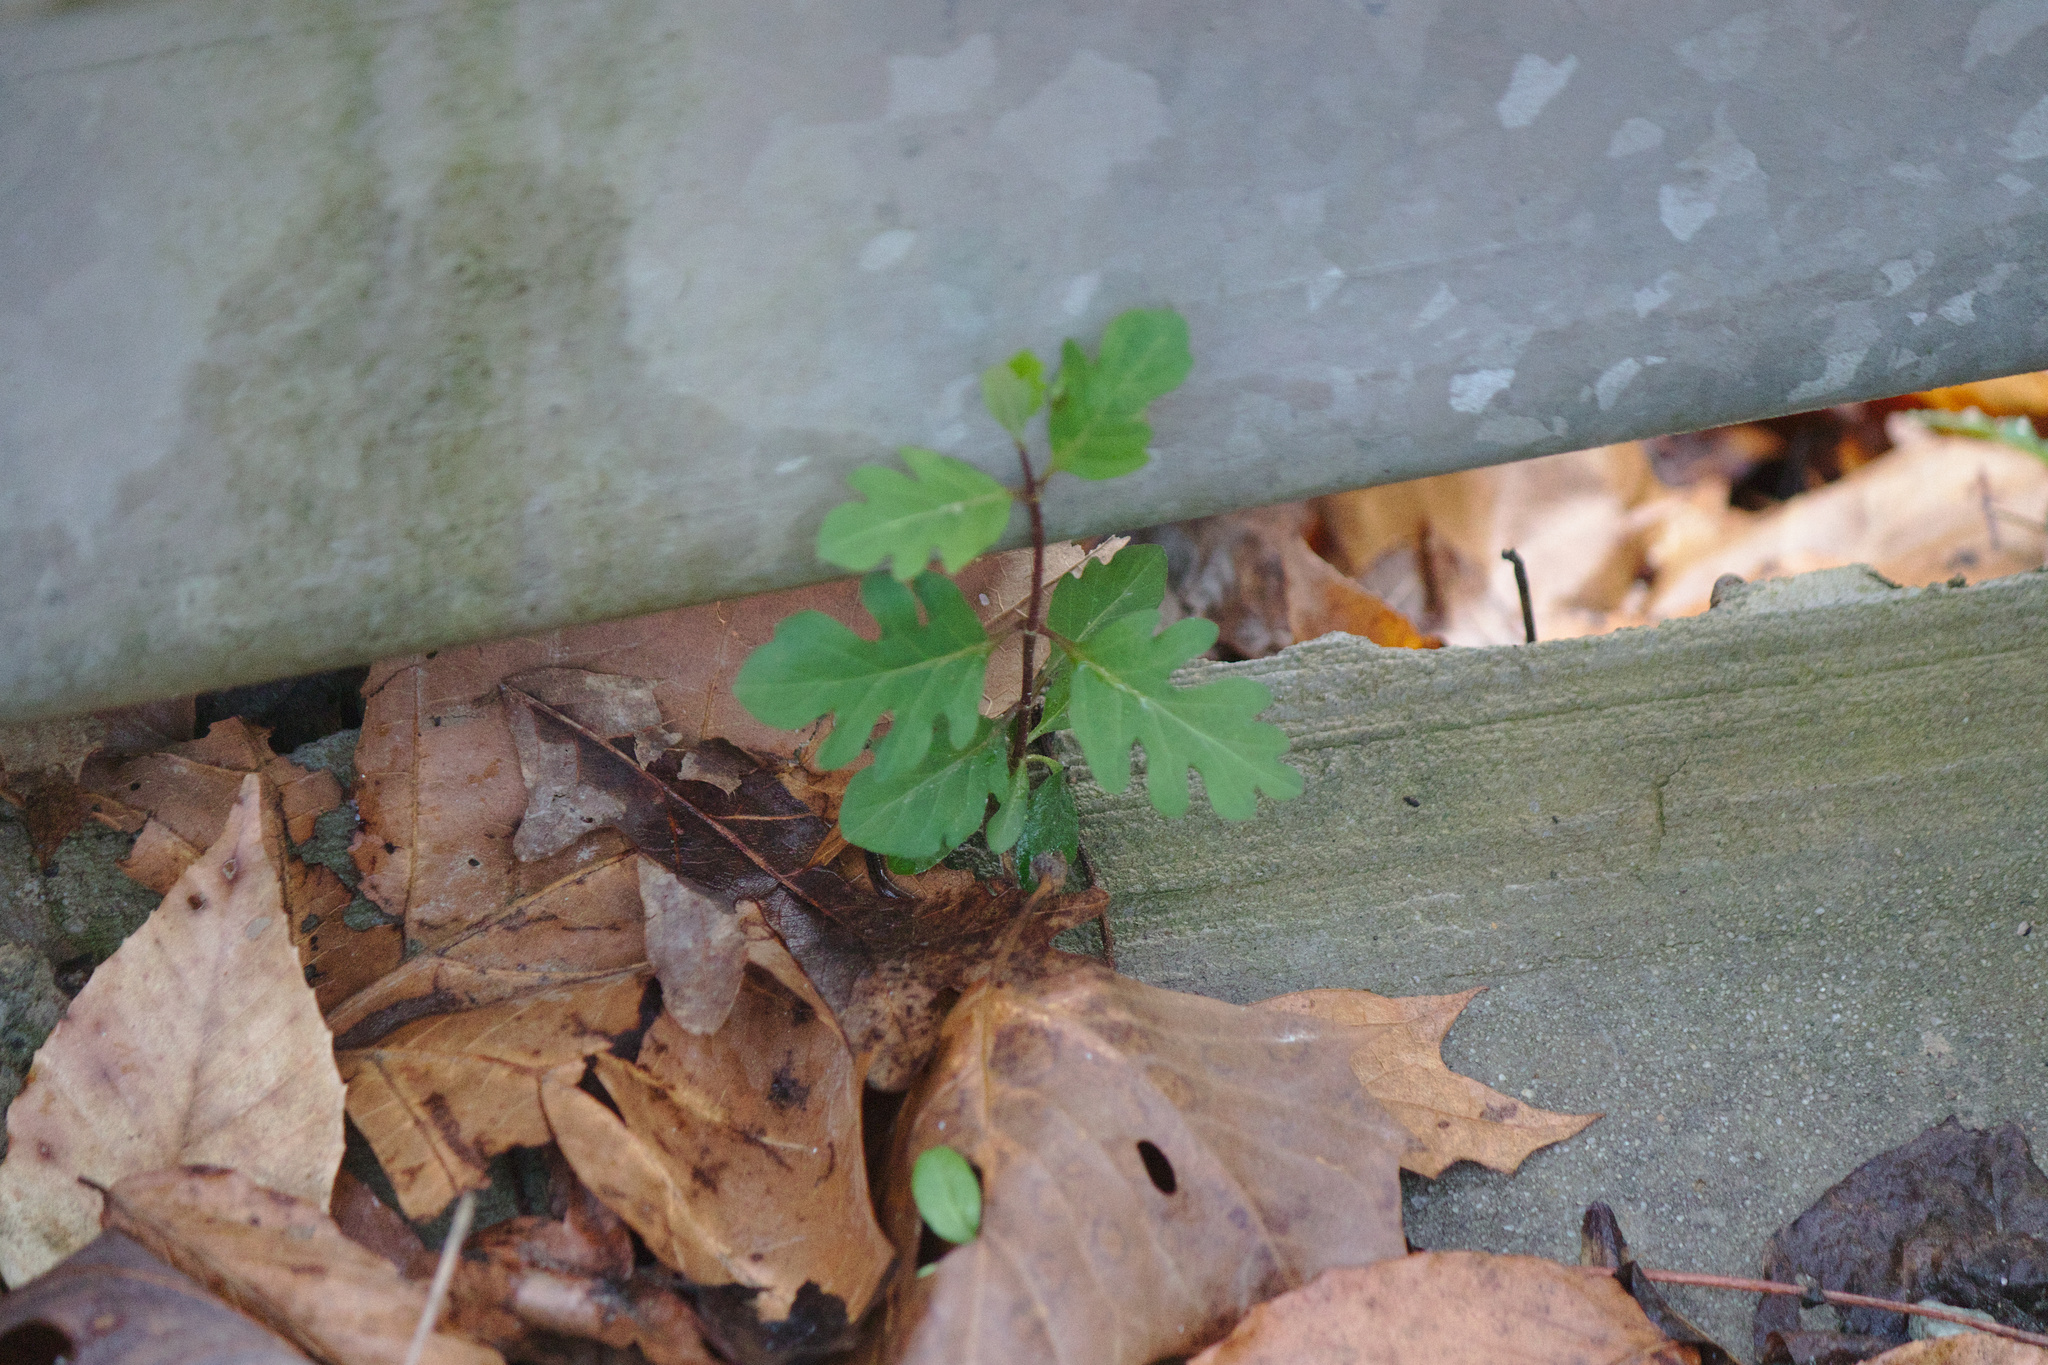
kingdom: Plantae
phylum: Tracheophyta
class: Magnoliopsida
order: Dipsacales
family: Caprifoliaceae
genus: Lonicera
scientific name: Lonicera japonica
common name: Japanese honeysuckle
